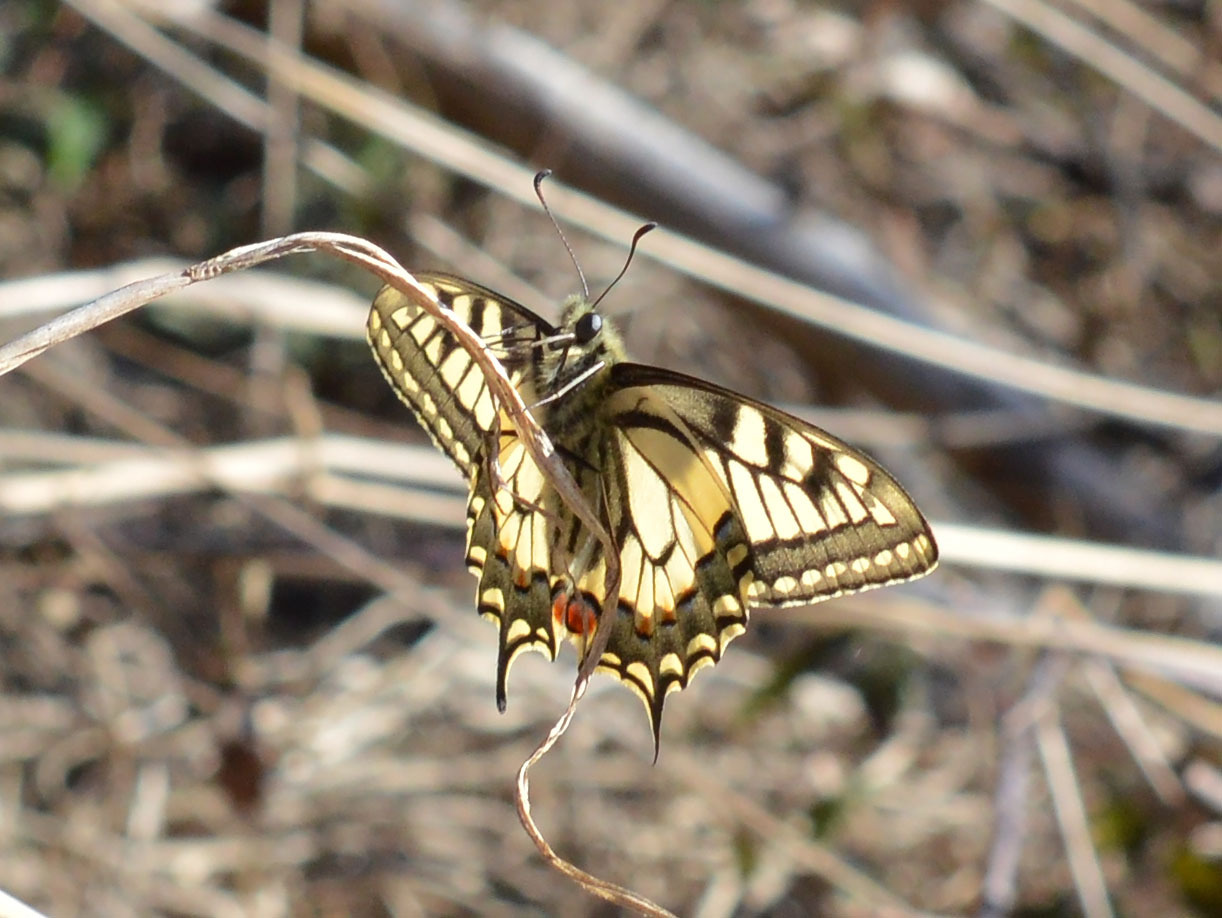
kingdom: Animalia
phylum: Arthropoda
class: Insecta
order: Lepidoptera
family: Papilionidae
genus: Papilio
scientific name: Papilio machaon
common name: Swallowtail
